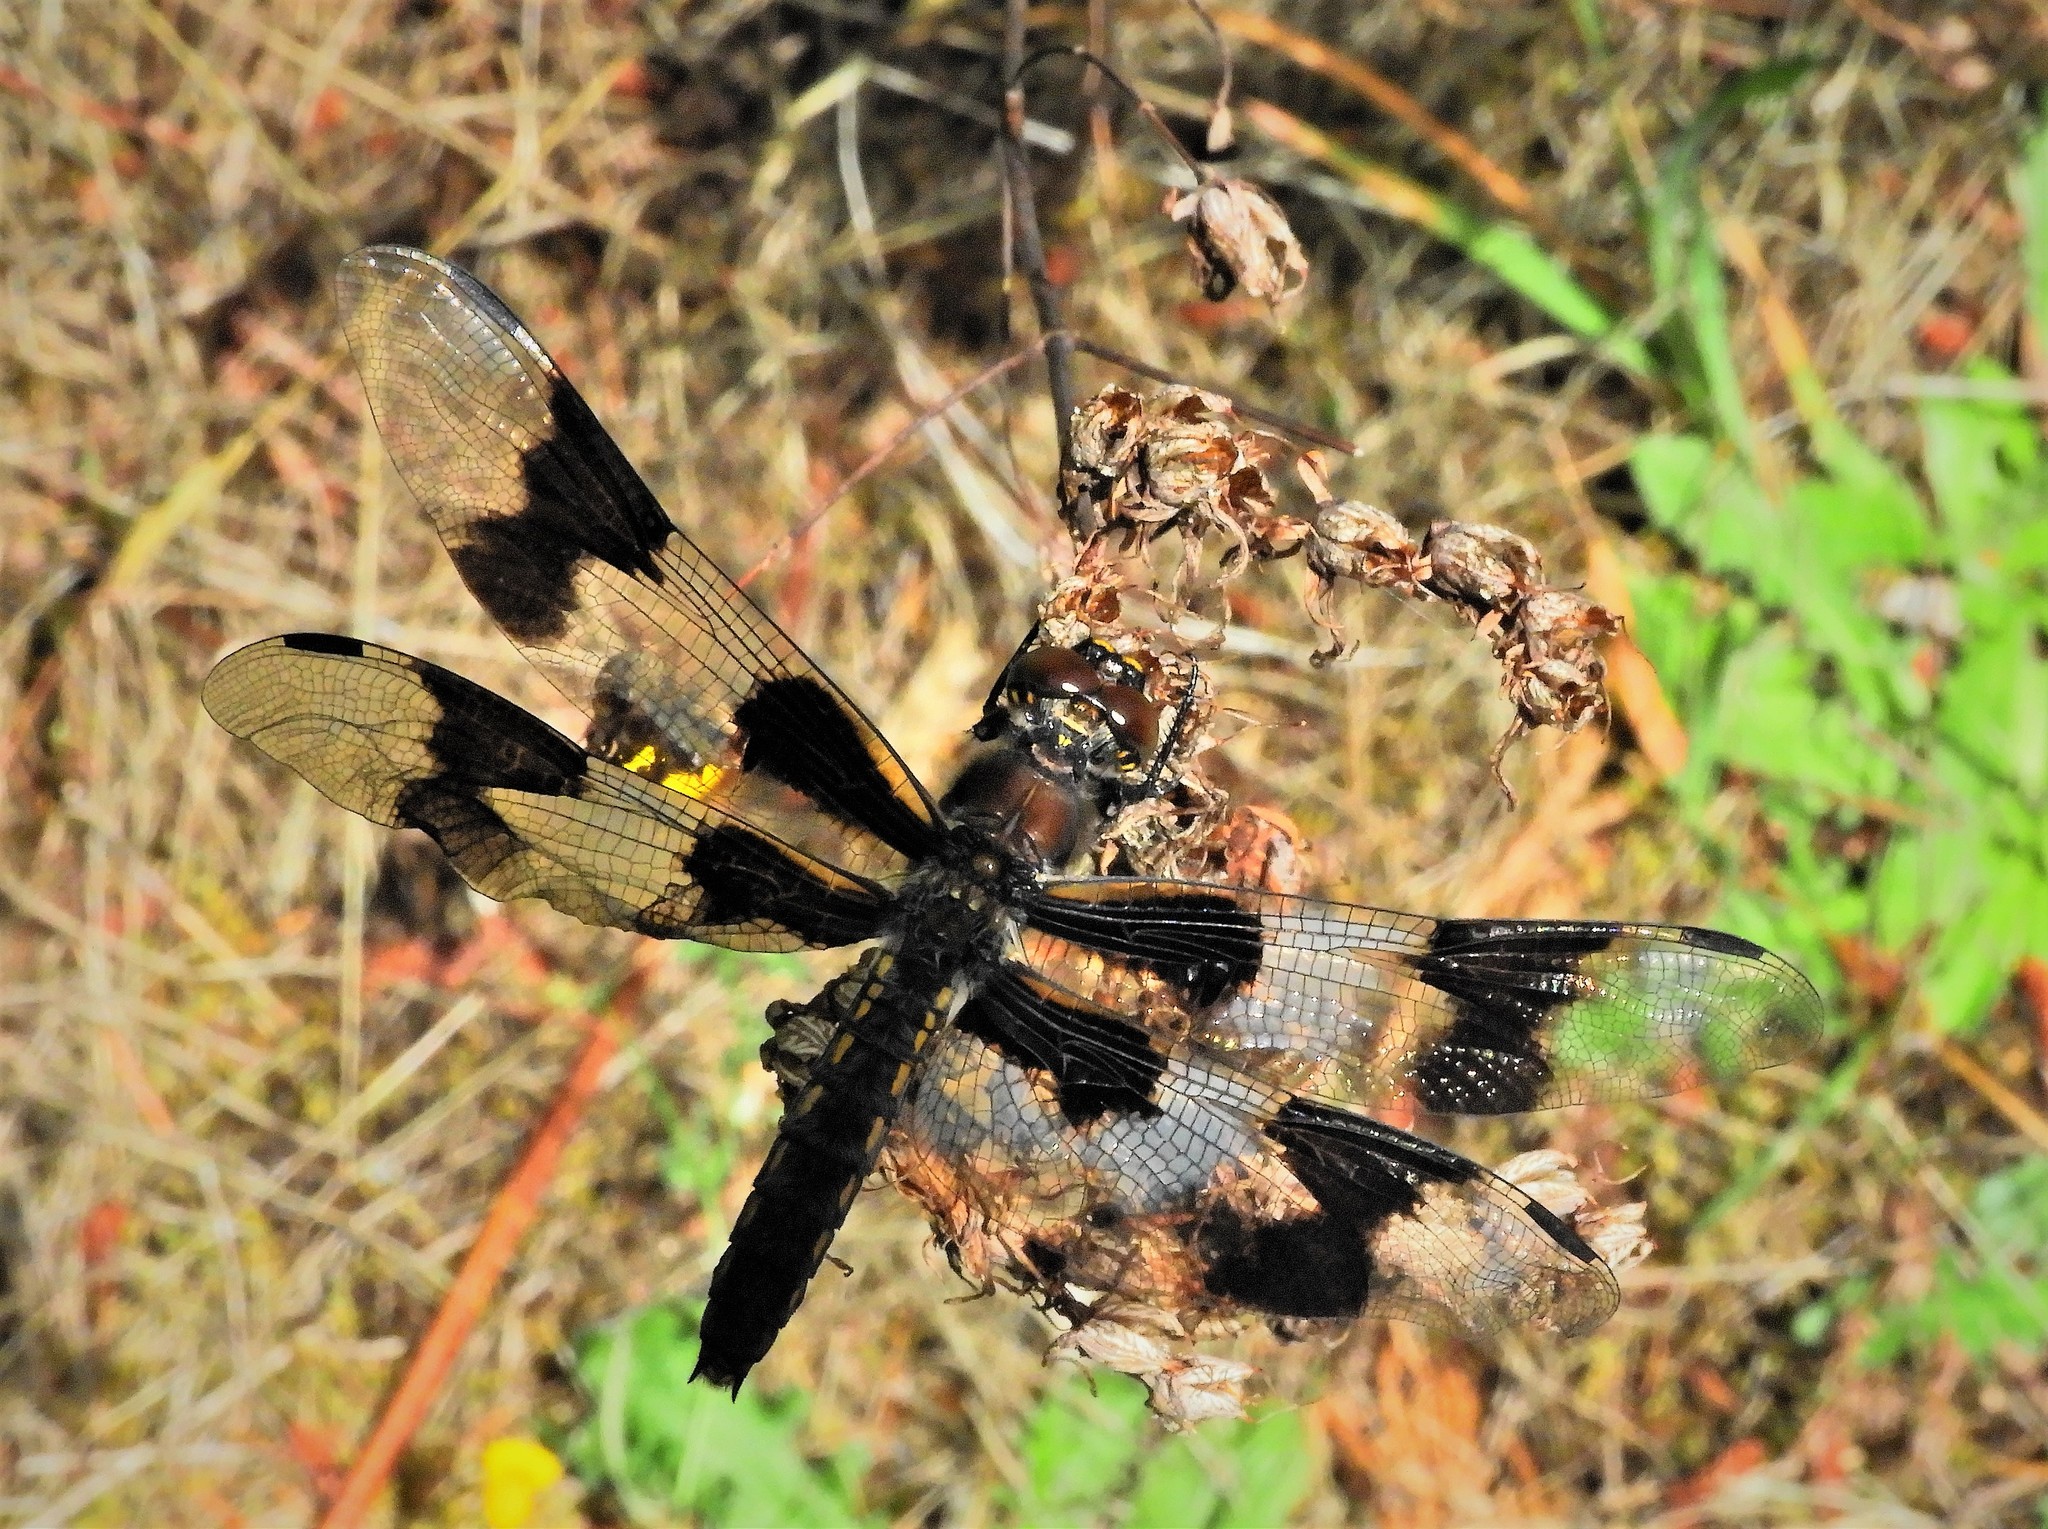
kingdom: Animalia
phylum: Arthropoda
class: Insecta
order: Odonata
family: Libellulidae
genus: Libellula
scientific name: Libellula forensis
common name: Eight-spotted skimmer
